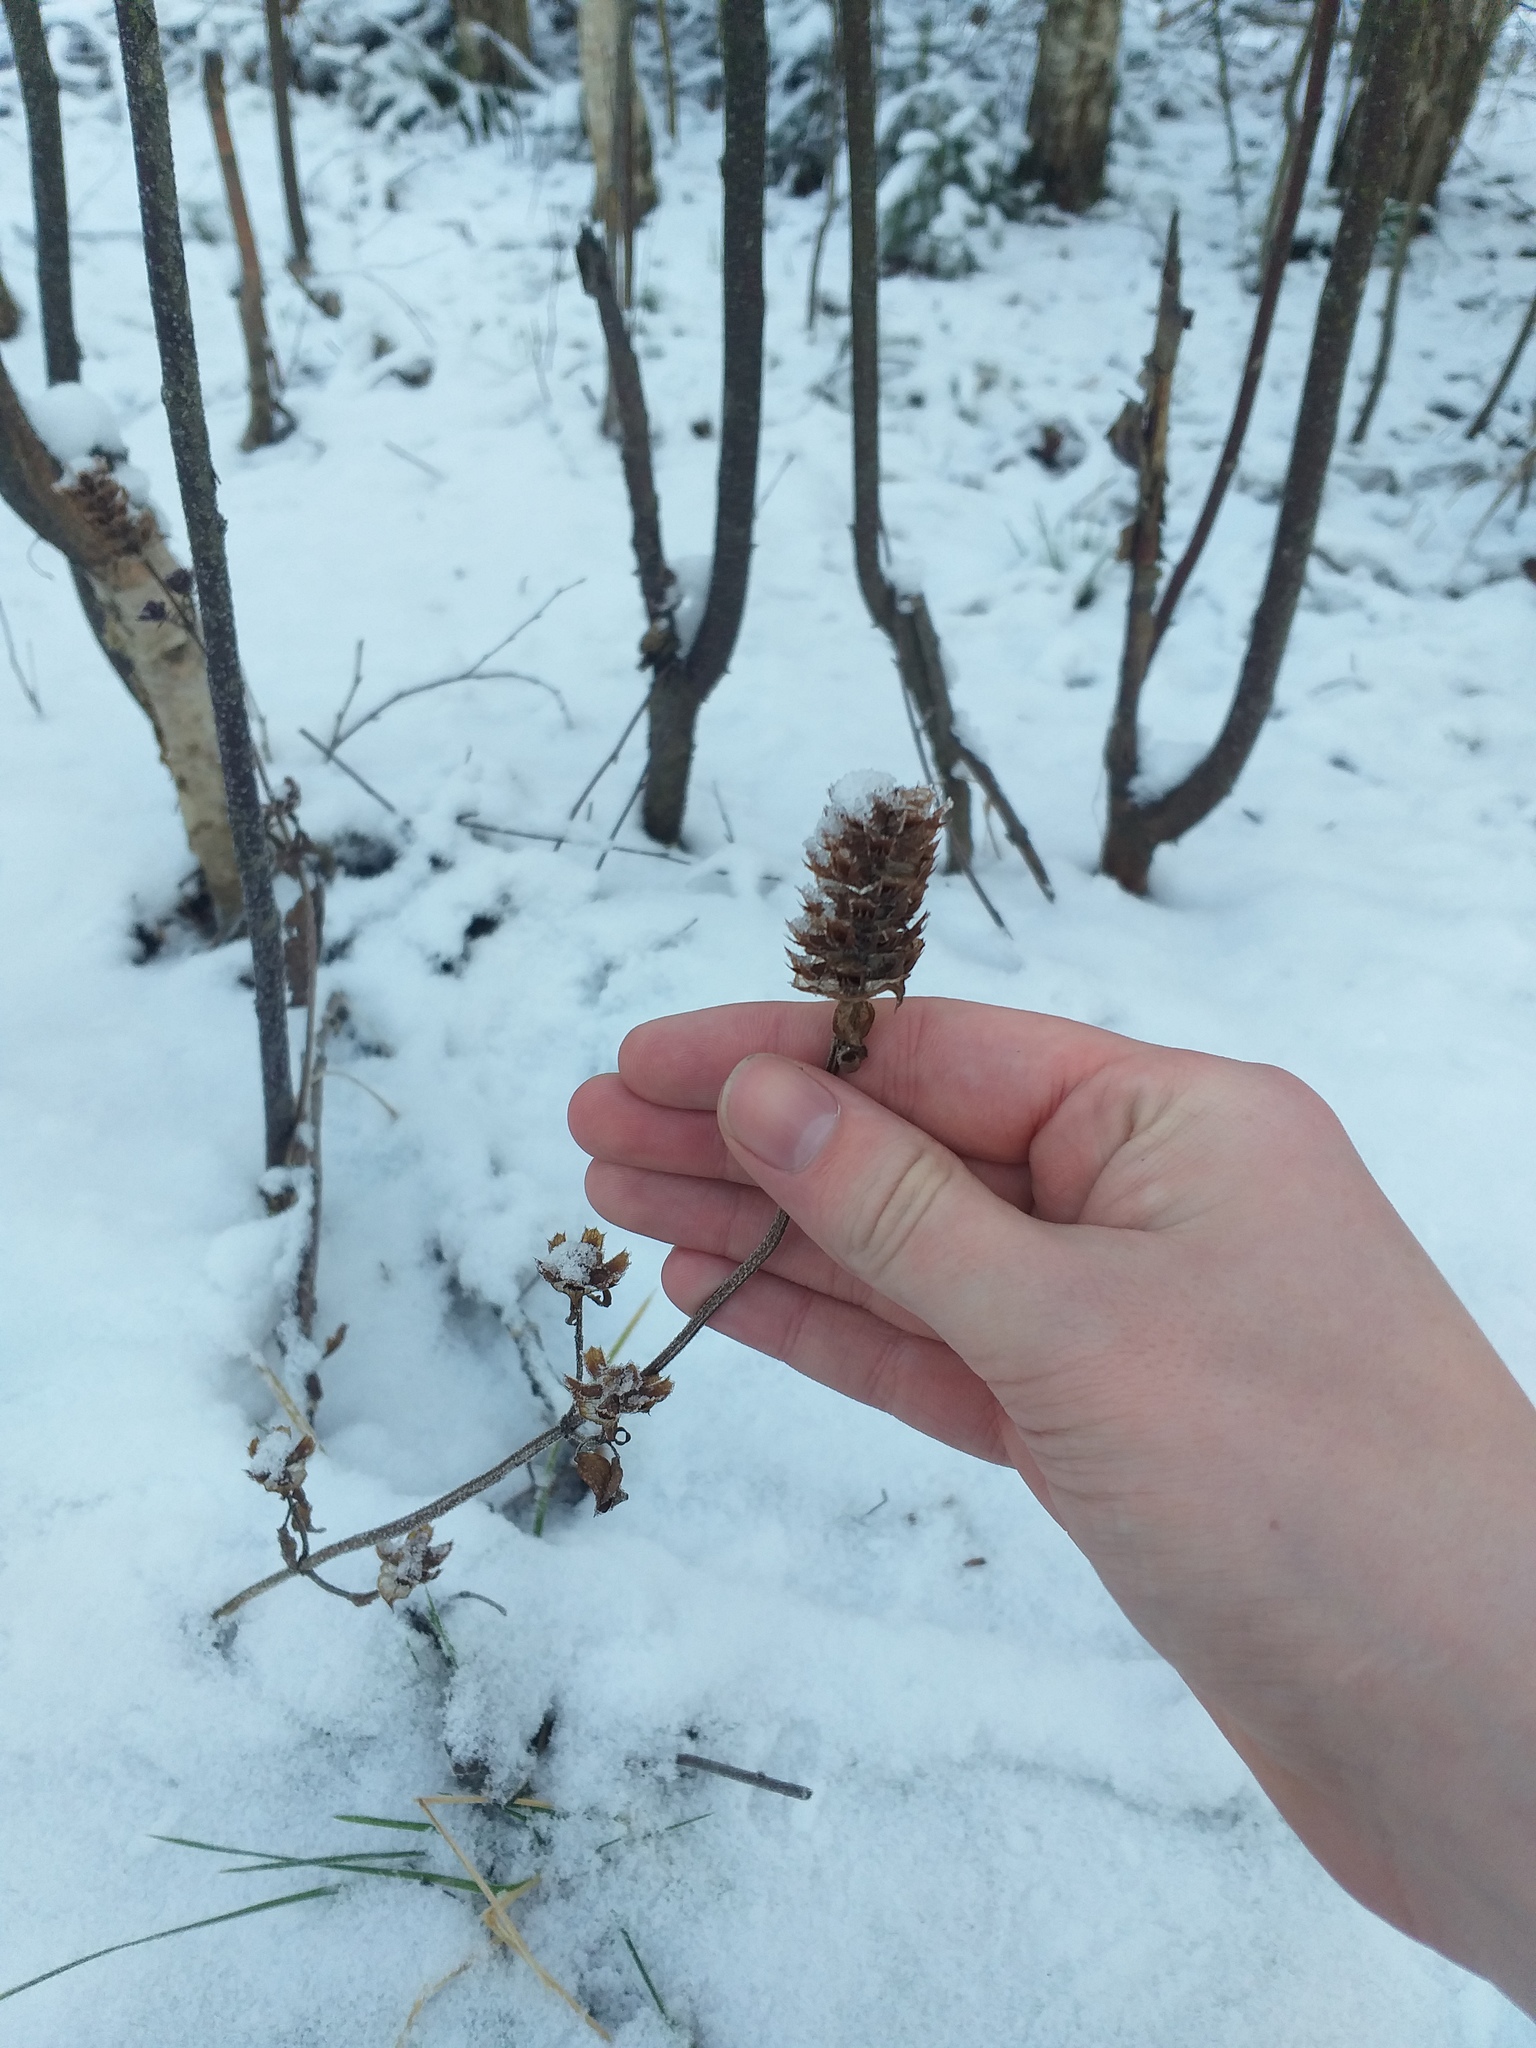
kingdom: Plantae
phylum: Tracheophyta
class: Magnoliopsida
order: Lamiales
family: Lamiaceae
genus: Prunella
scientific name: Prunella vulgaris
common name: Heal-all
